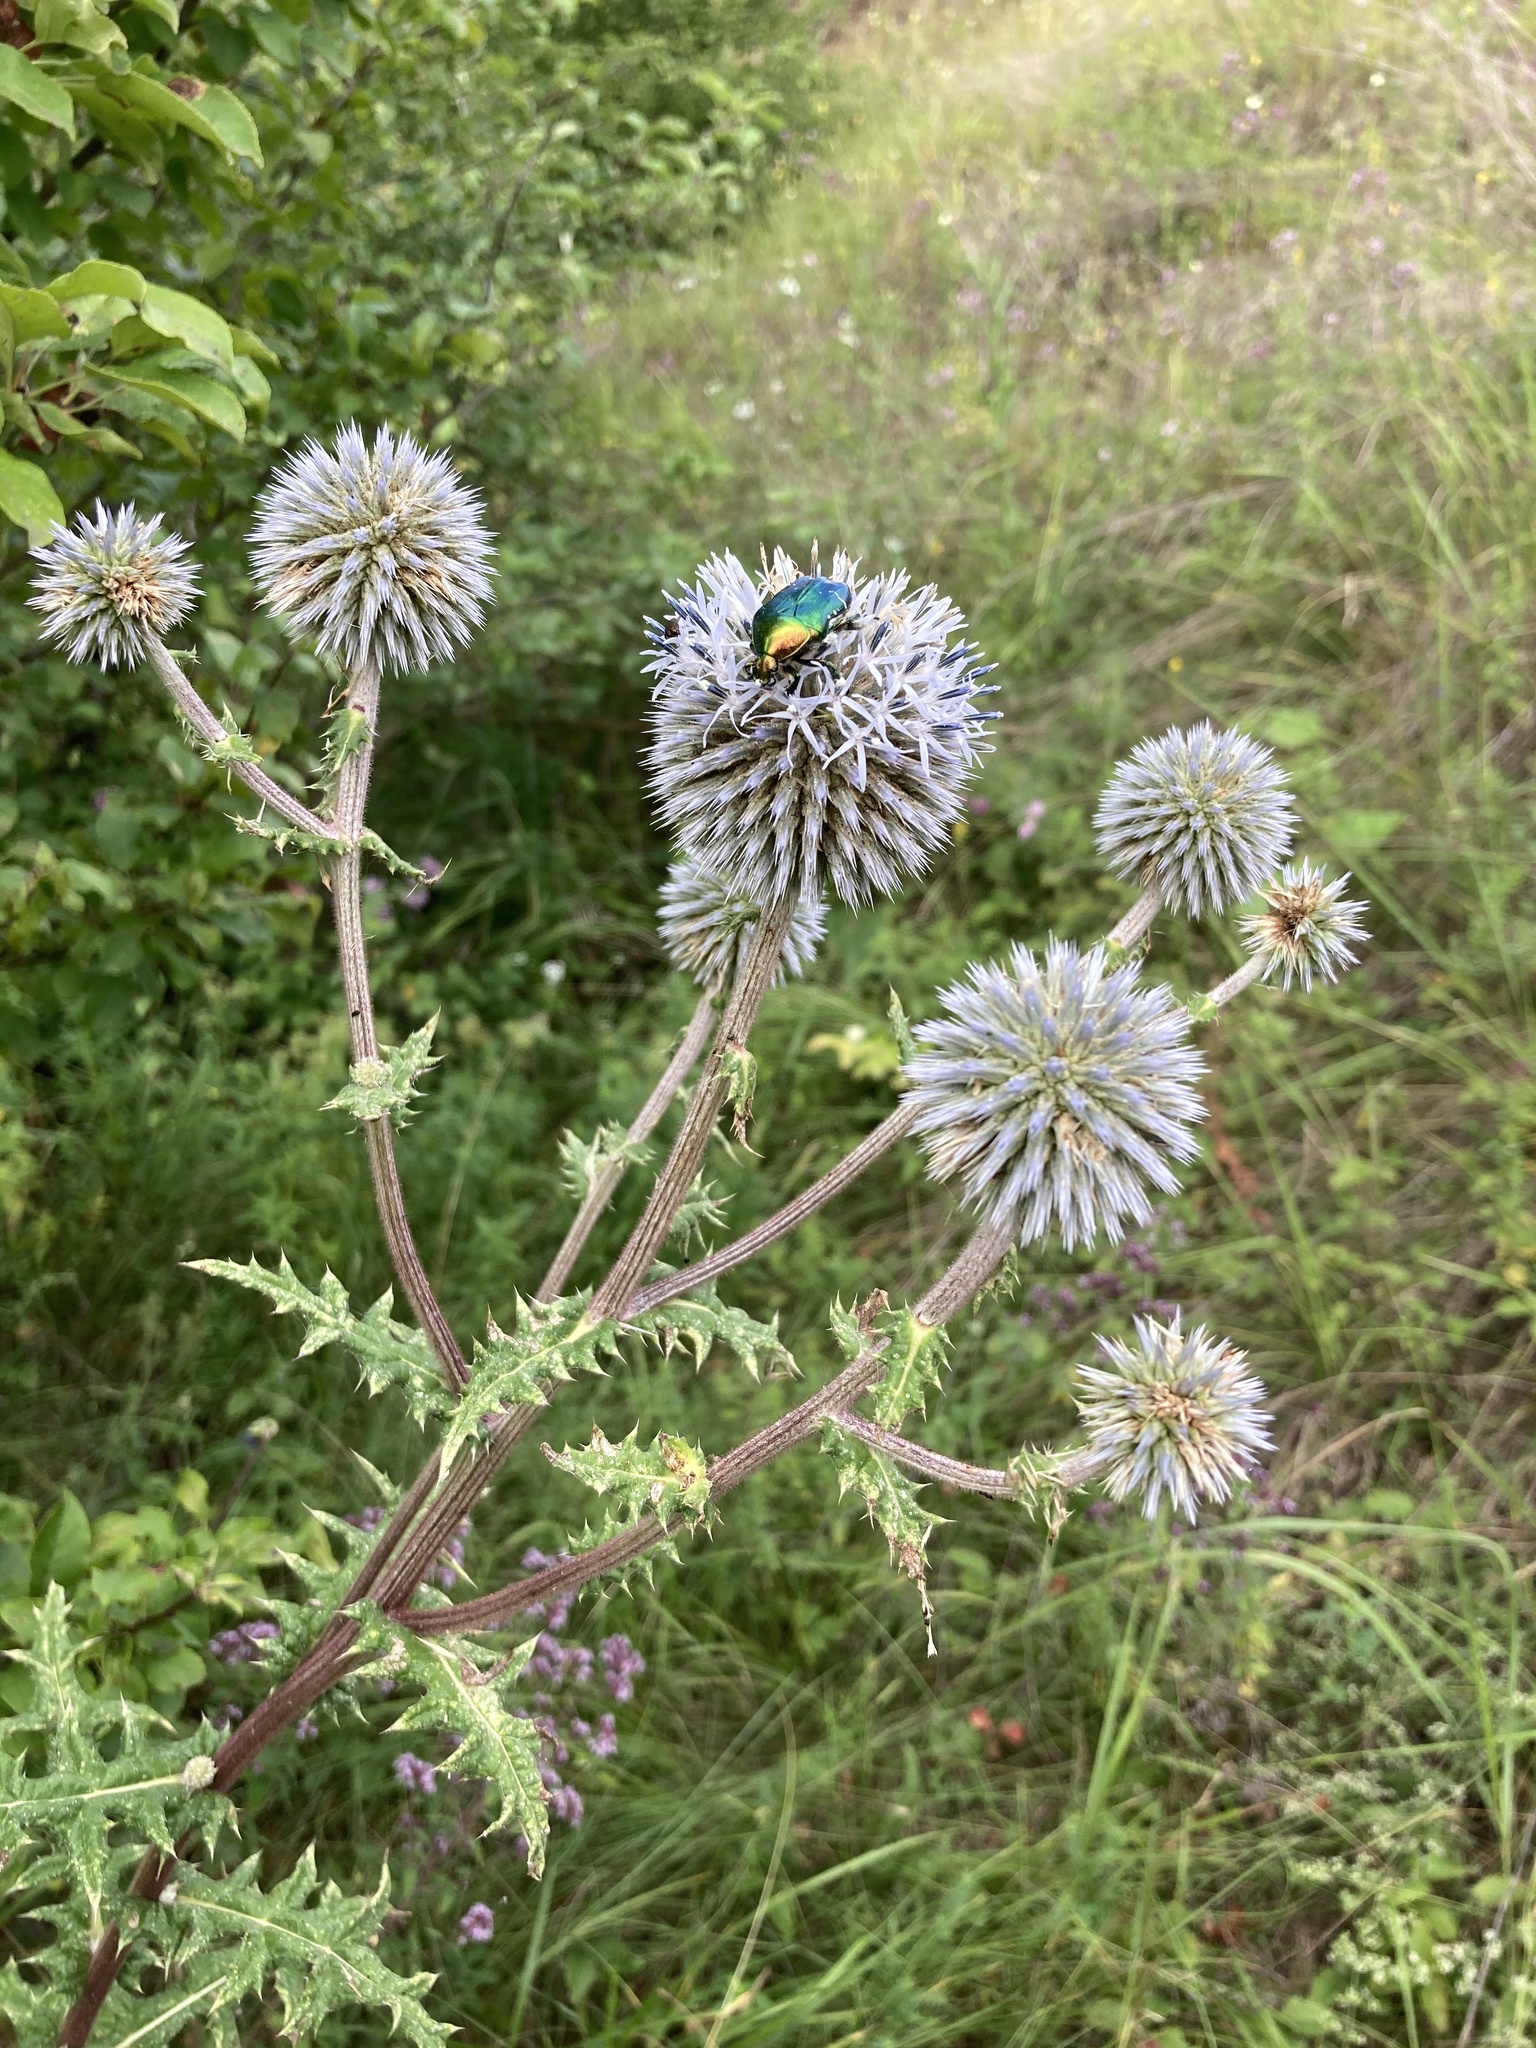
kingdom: Plantae
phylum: Tracheophyta
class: Magnoliopsida
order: Asterales
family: Asteraceae
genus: Echinops
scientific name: Echinops sphaerocephalus
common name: Glandular globe-thistle
